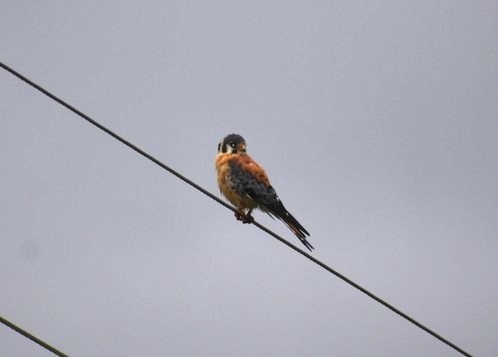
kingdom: Animalia
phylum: Chordata
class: Aves
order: Falconiformes
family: Falconidae
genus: Falco
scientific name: Falco sparverius
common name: American kestrel
